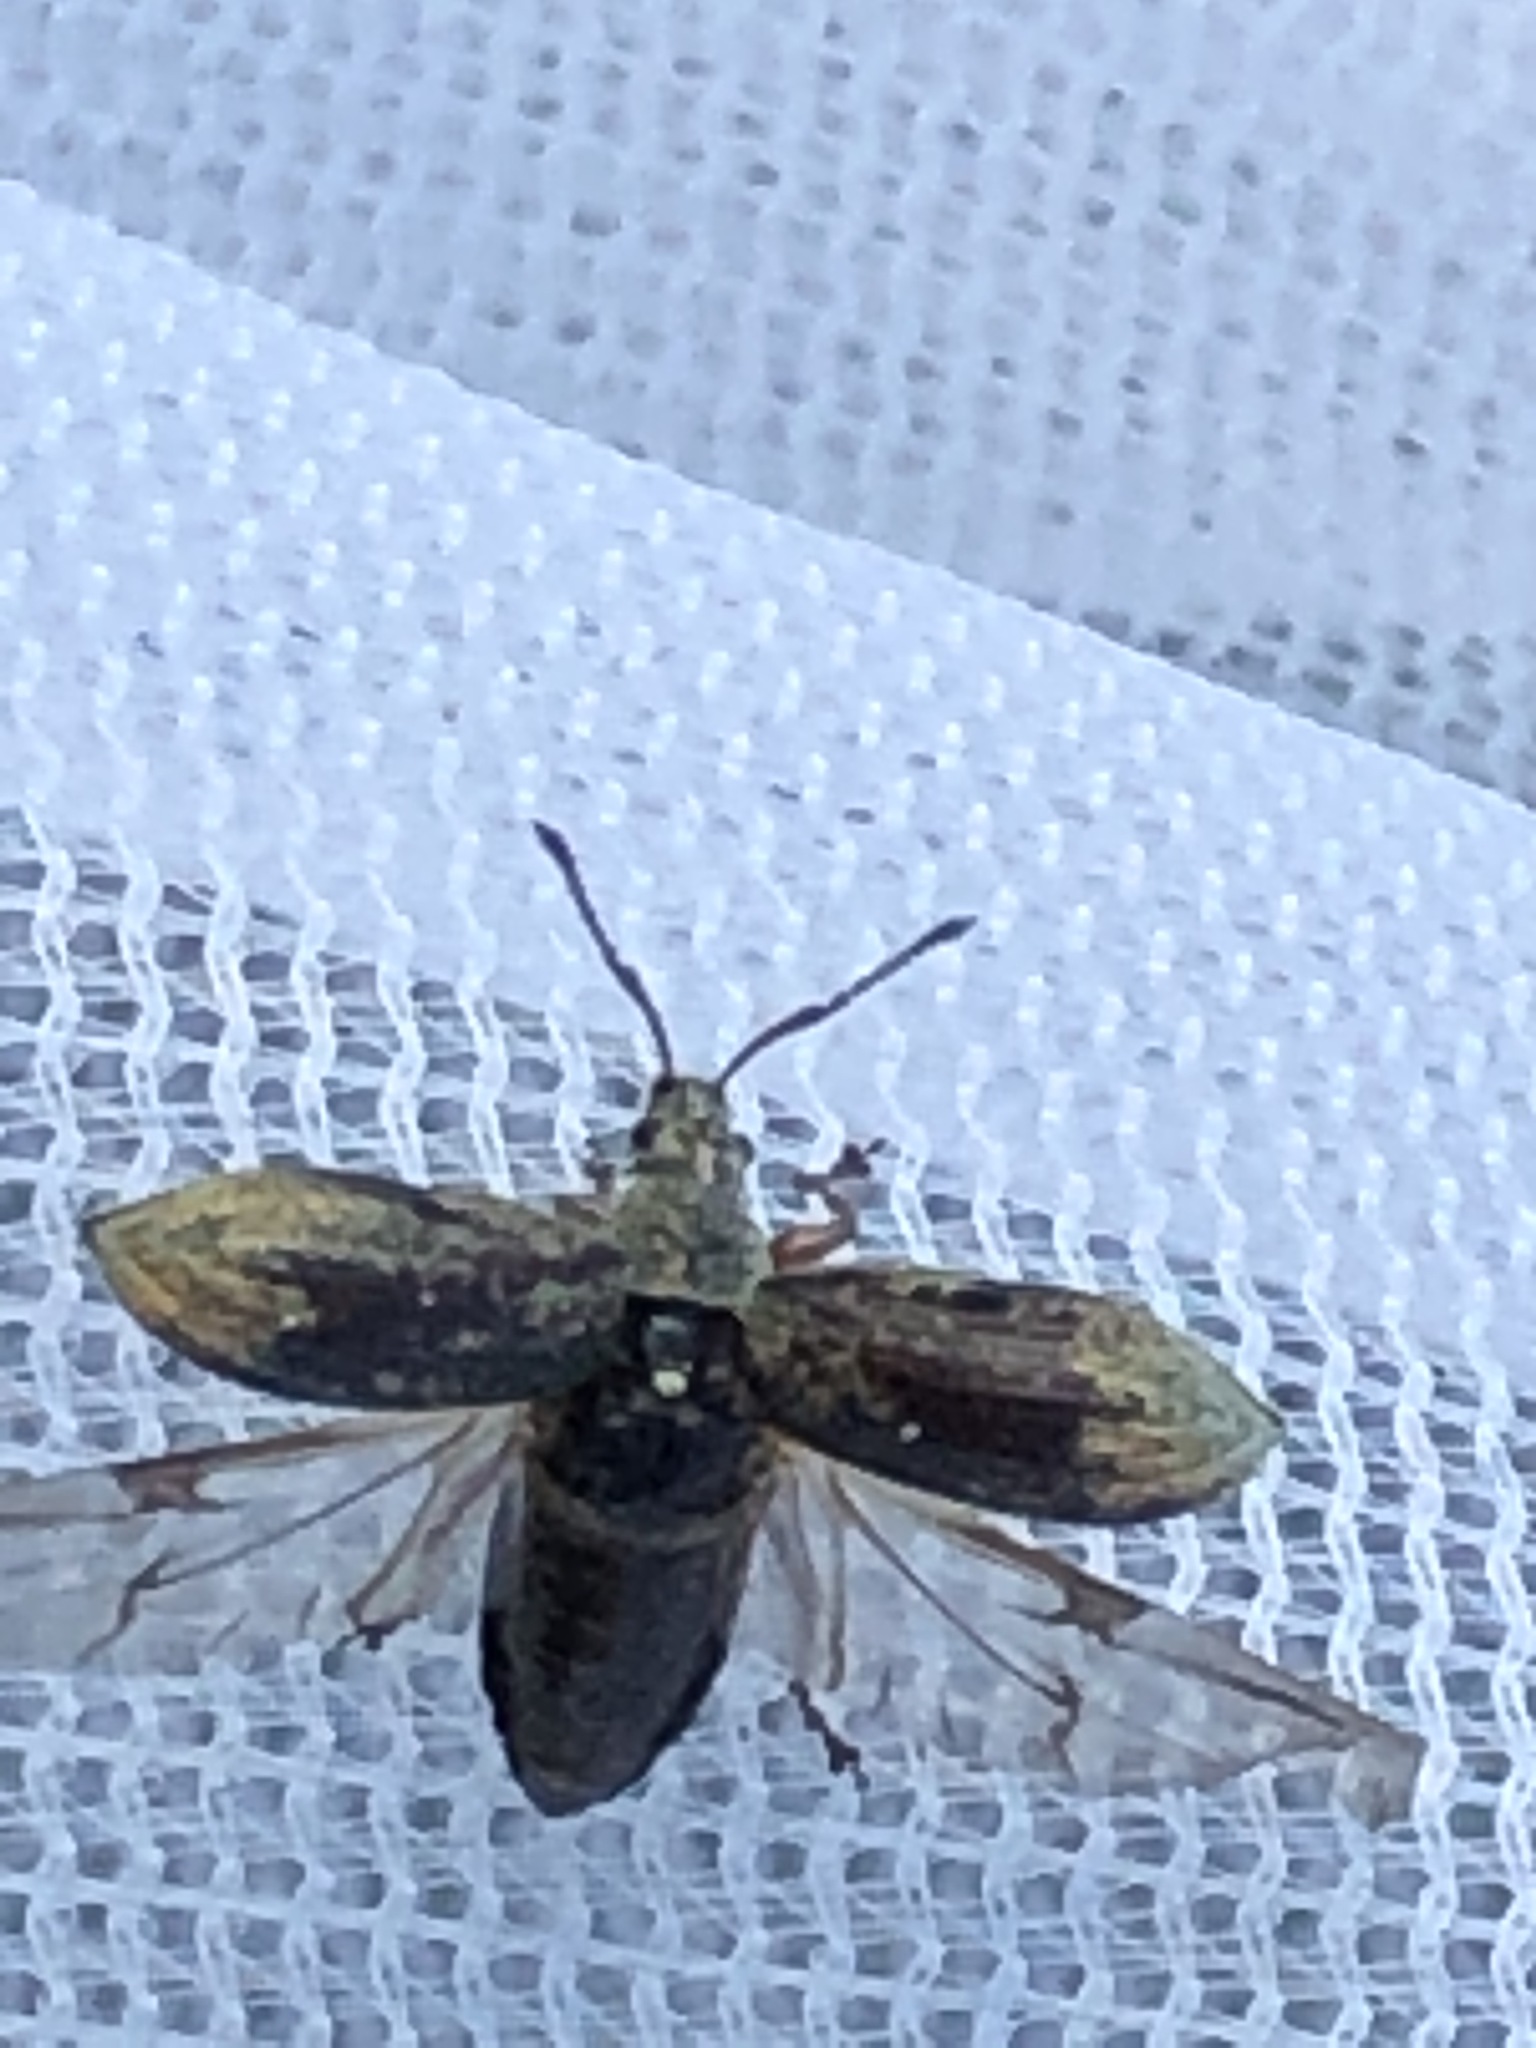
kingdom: Animalia
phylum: Arthropoda
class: Insecta
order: Coleoptera
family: Curculionidae
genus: Phyllobius
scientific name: Phyllobius pyri
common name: Common leaf weevil
